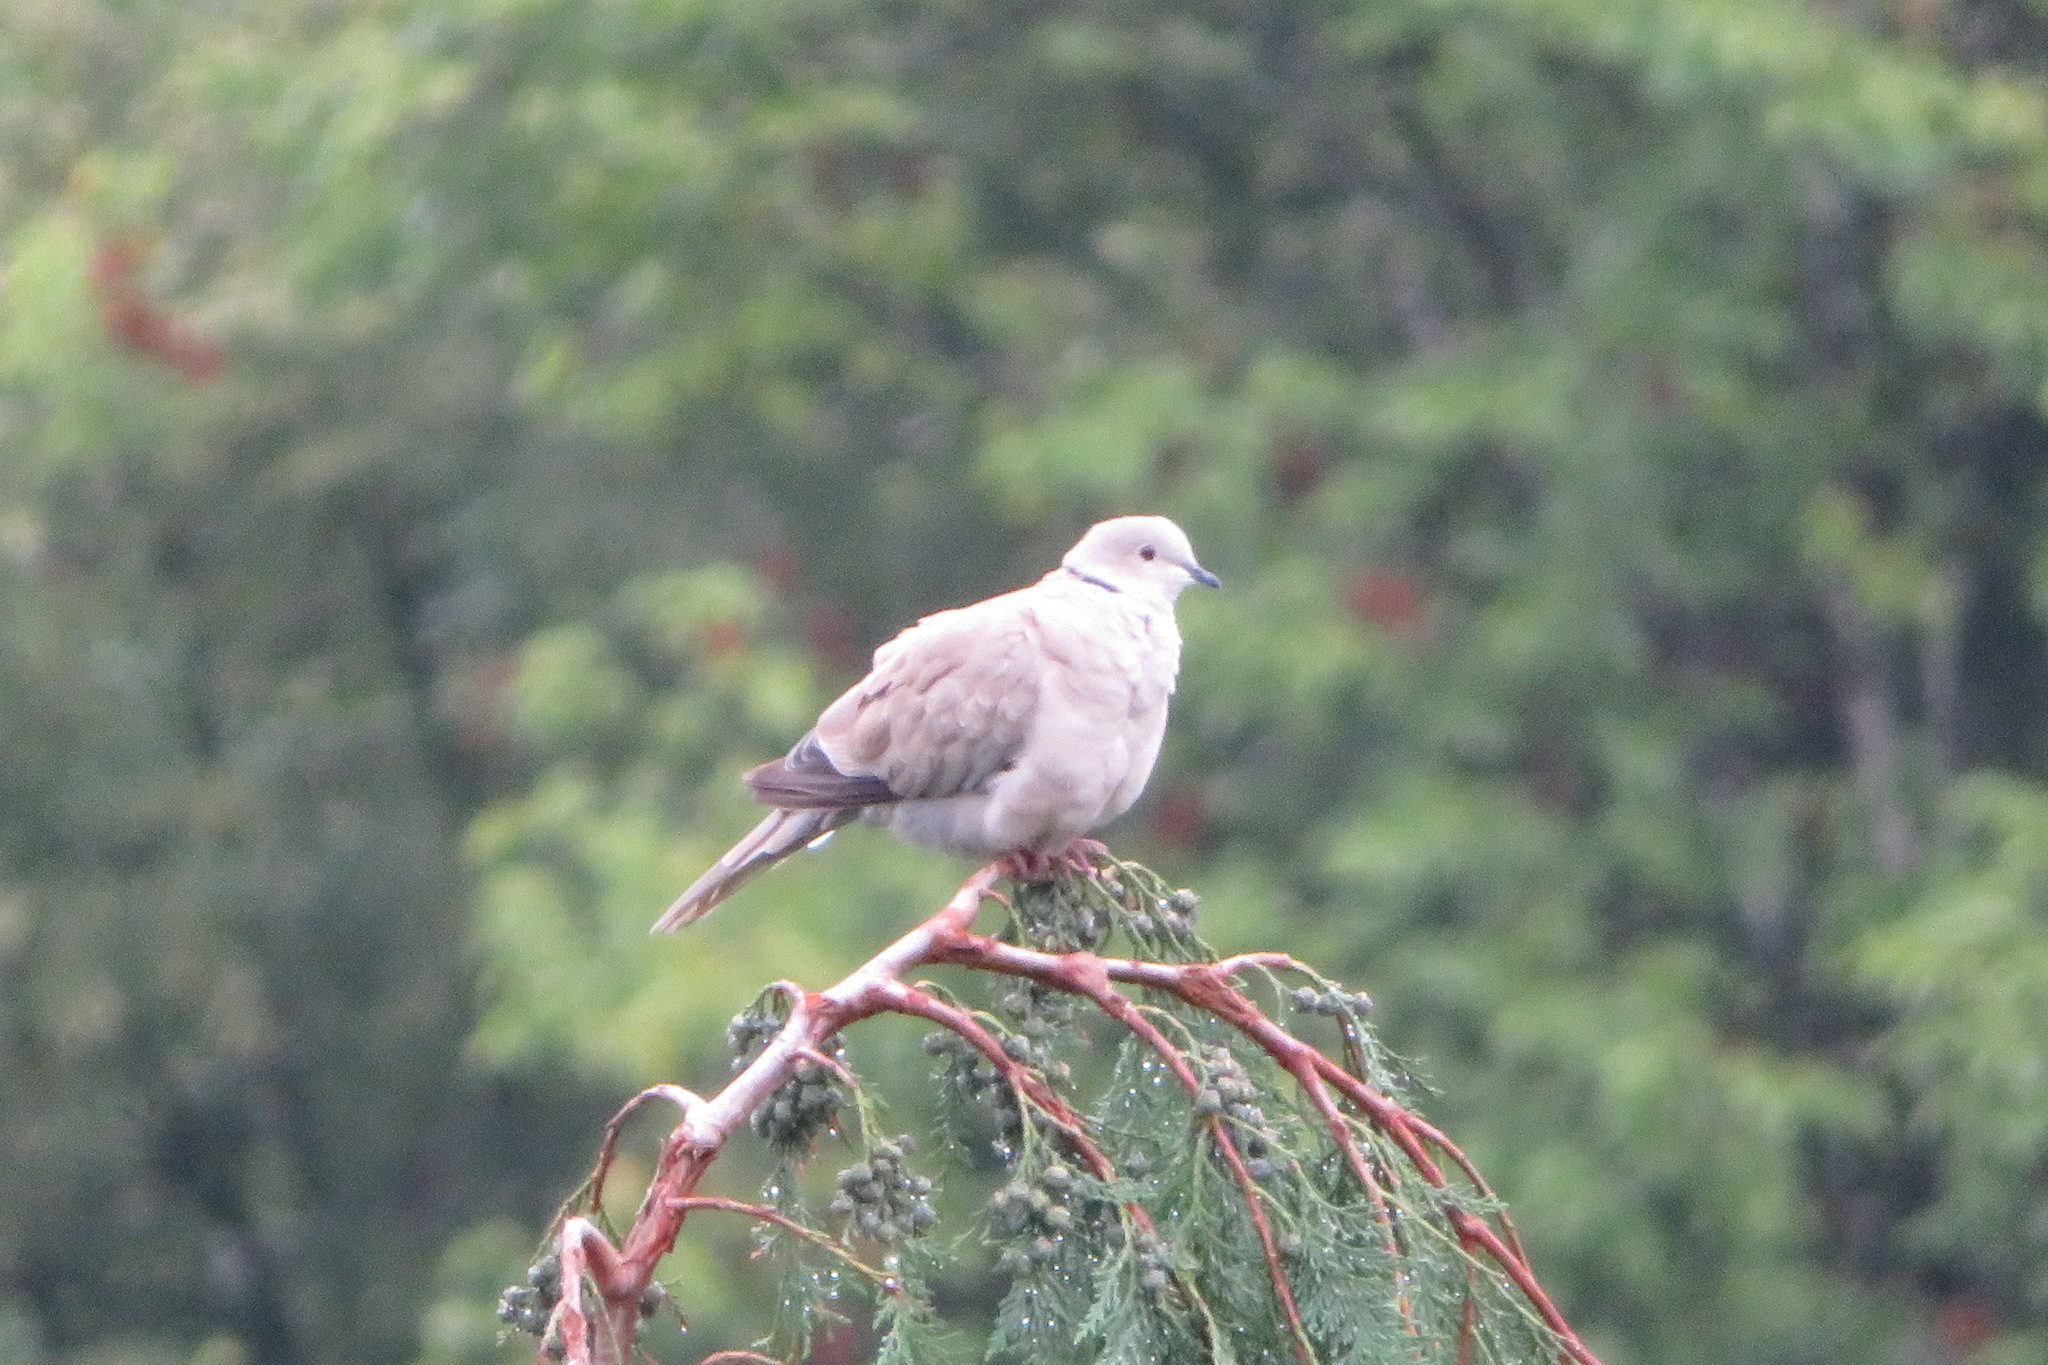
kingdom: Animalia
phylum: Chordata
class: Aves
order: Columbiformes
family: Columbidae
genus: Streptopelia
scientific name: Streptopelia decaocto
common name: Eurasian collared dove
